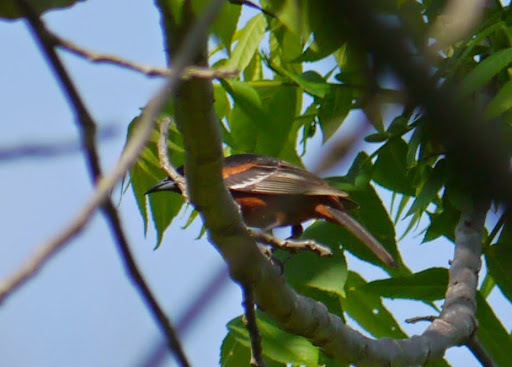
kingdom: Animalia
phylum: Chordata
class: Aves
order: Passeriformes
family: Icteridae
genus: Icterus
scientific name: Icterus spurius
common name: Orchard oriole
